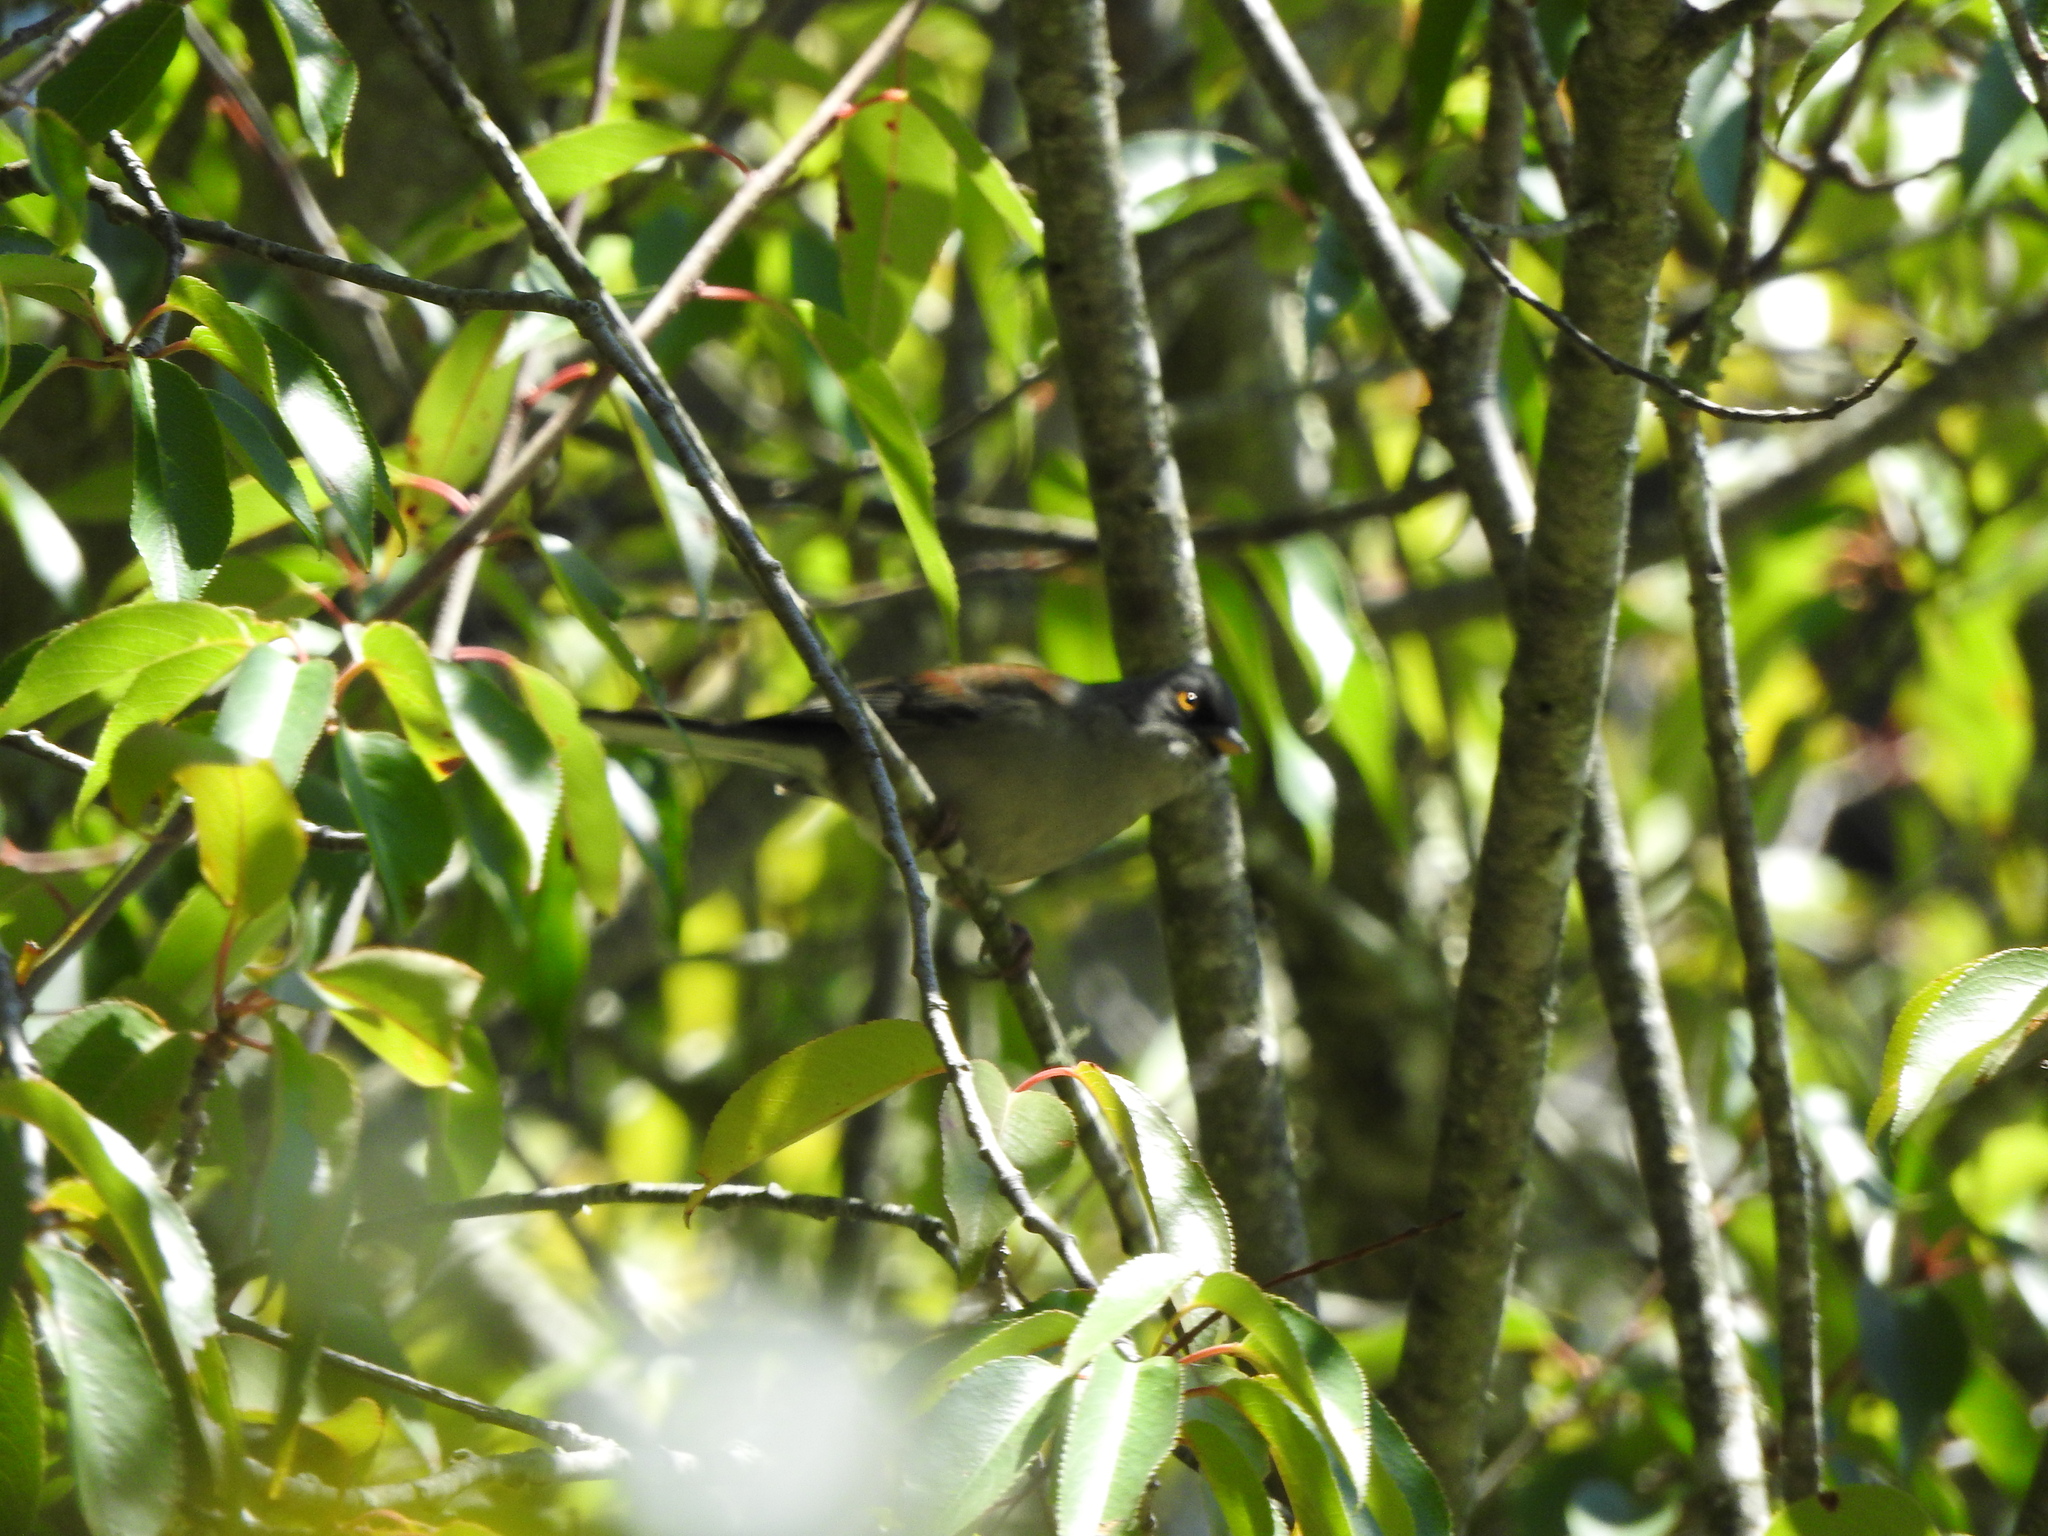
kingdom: Animalia
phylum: Chordata
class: Aves
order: Passeriformes
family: Passerellidae
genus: Junco
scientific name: Junco phaeonotus
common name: Yellow-eyed junco
